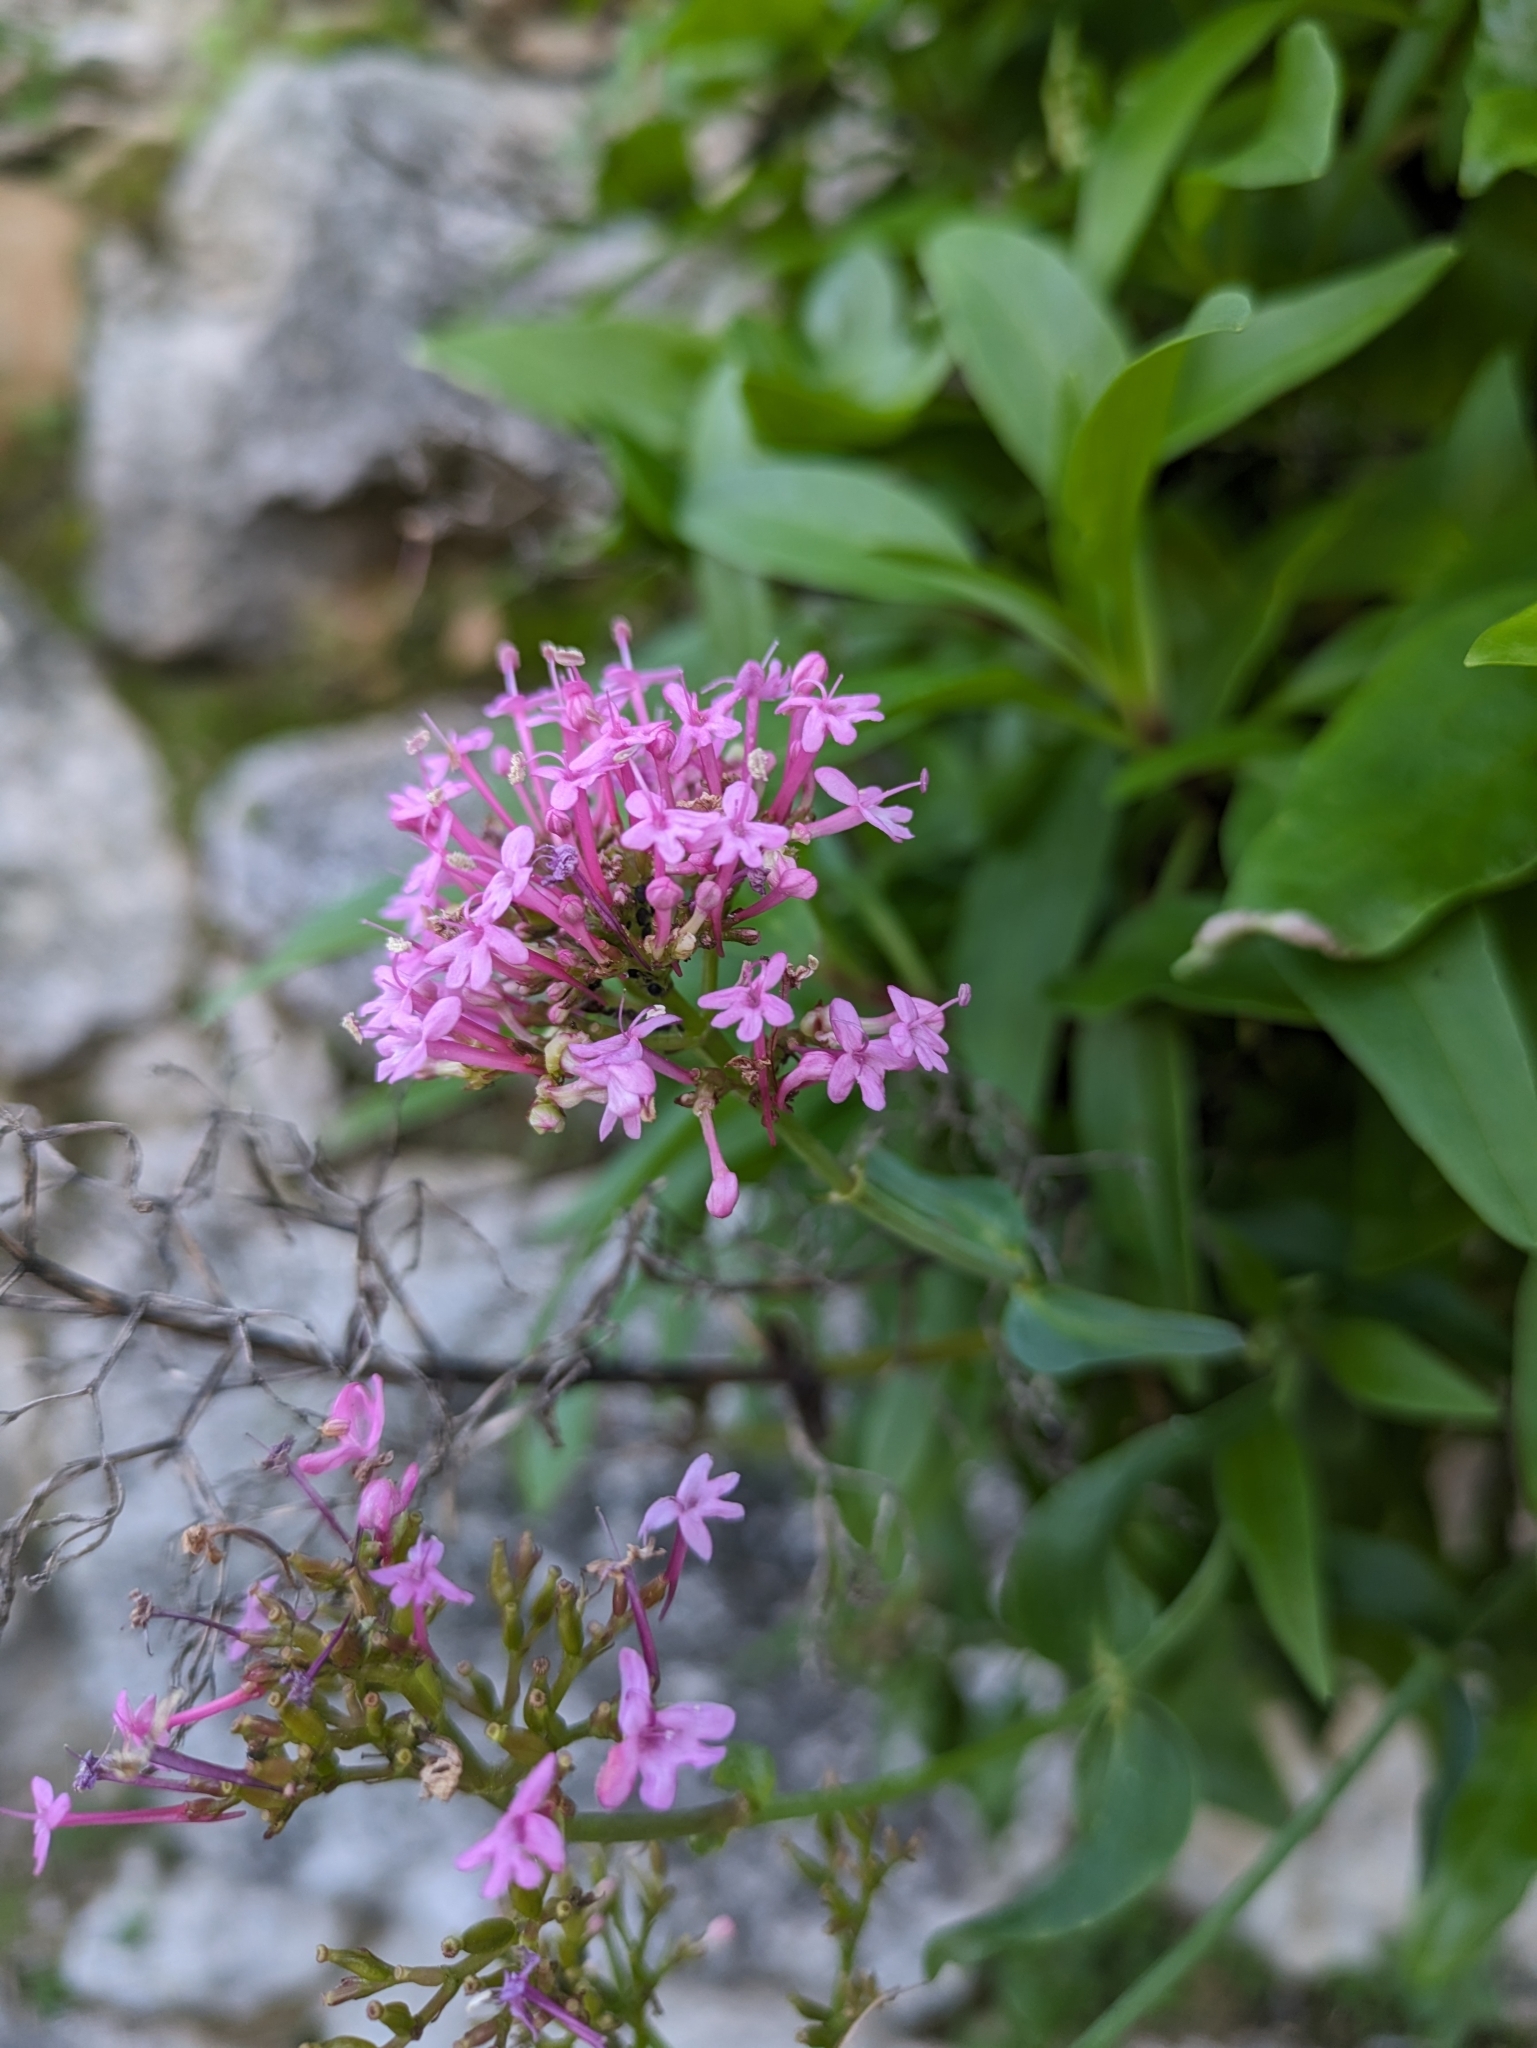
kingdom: Plantae
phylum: Tracheophyta
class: Magnoliopsida
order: Dipsacales
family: Caprifoliaceae
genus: Centranthus
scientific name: Centranthus ruber
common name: Red valerian
